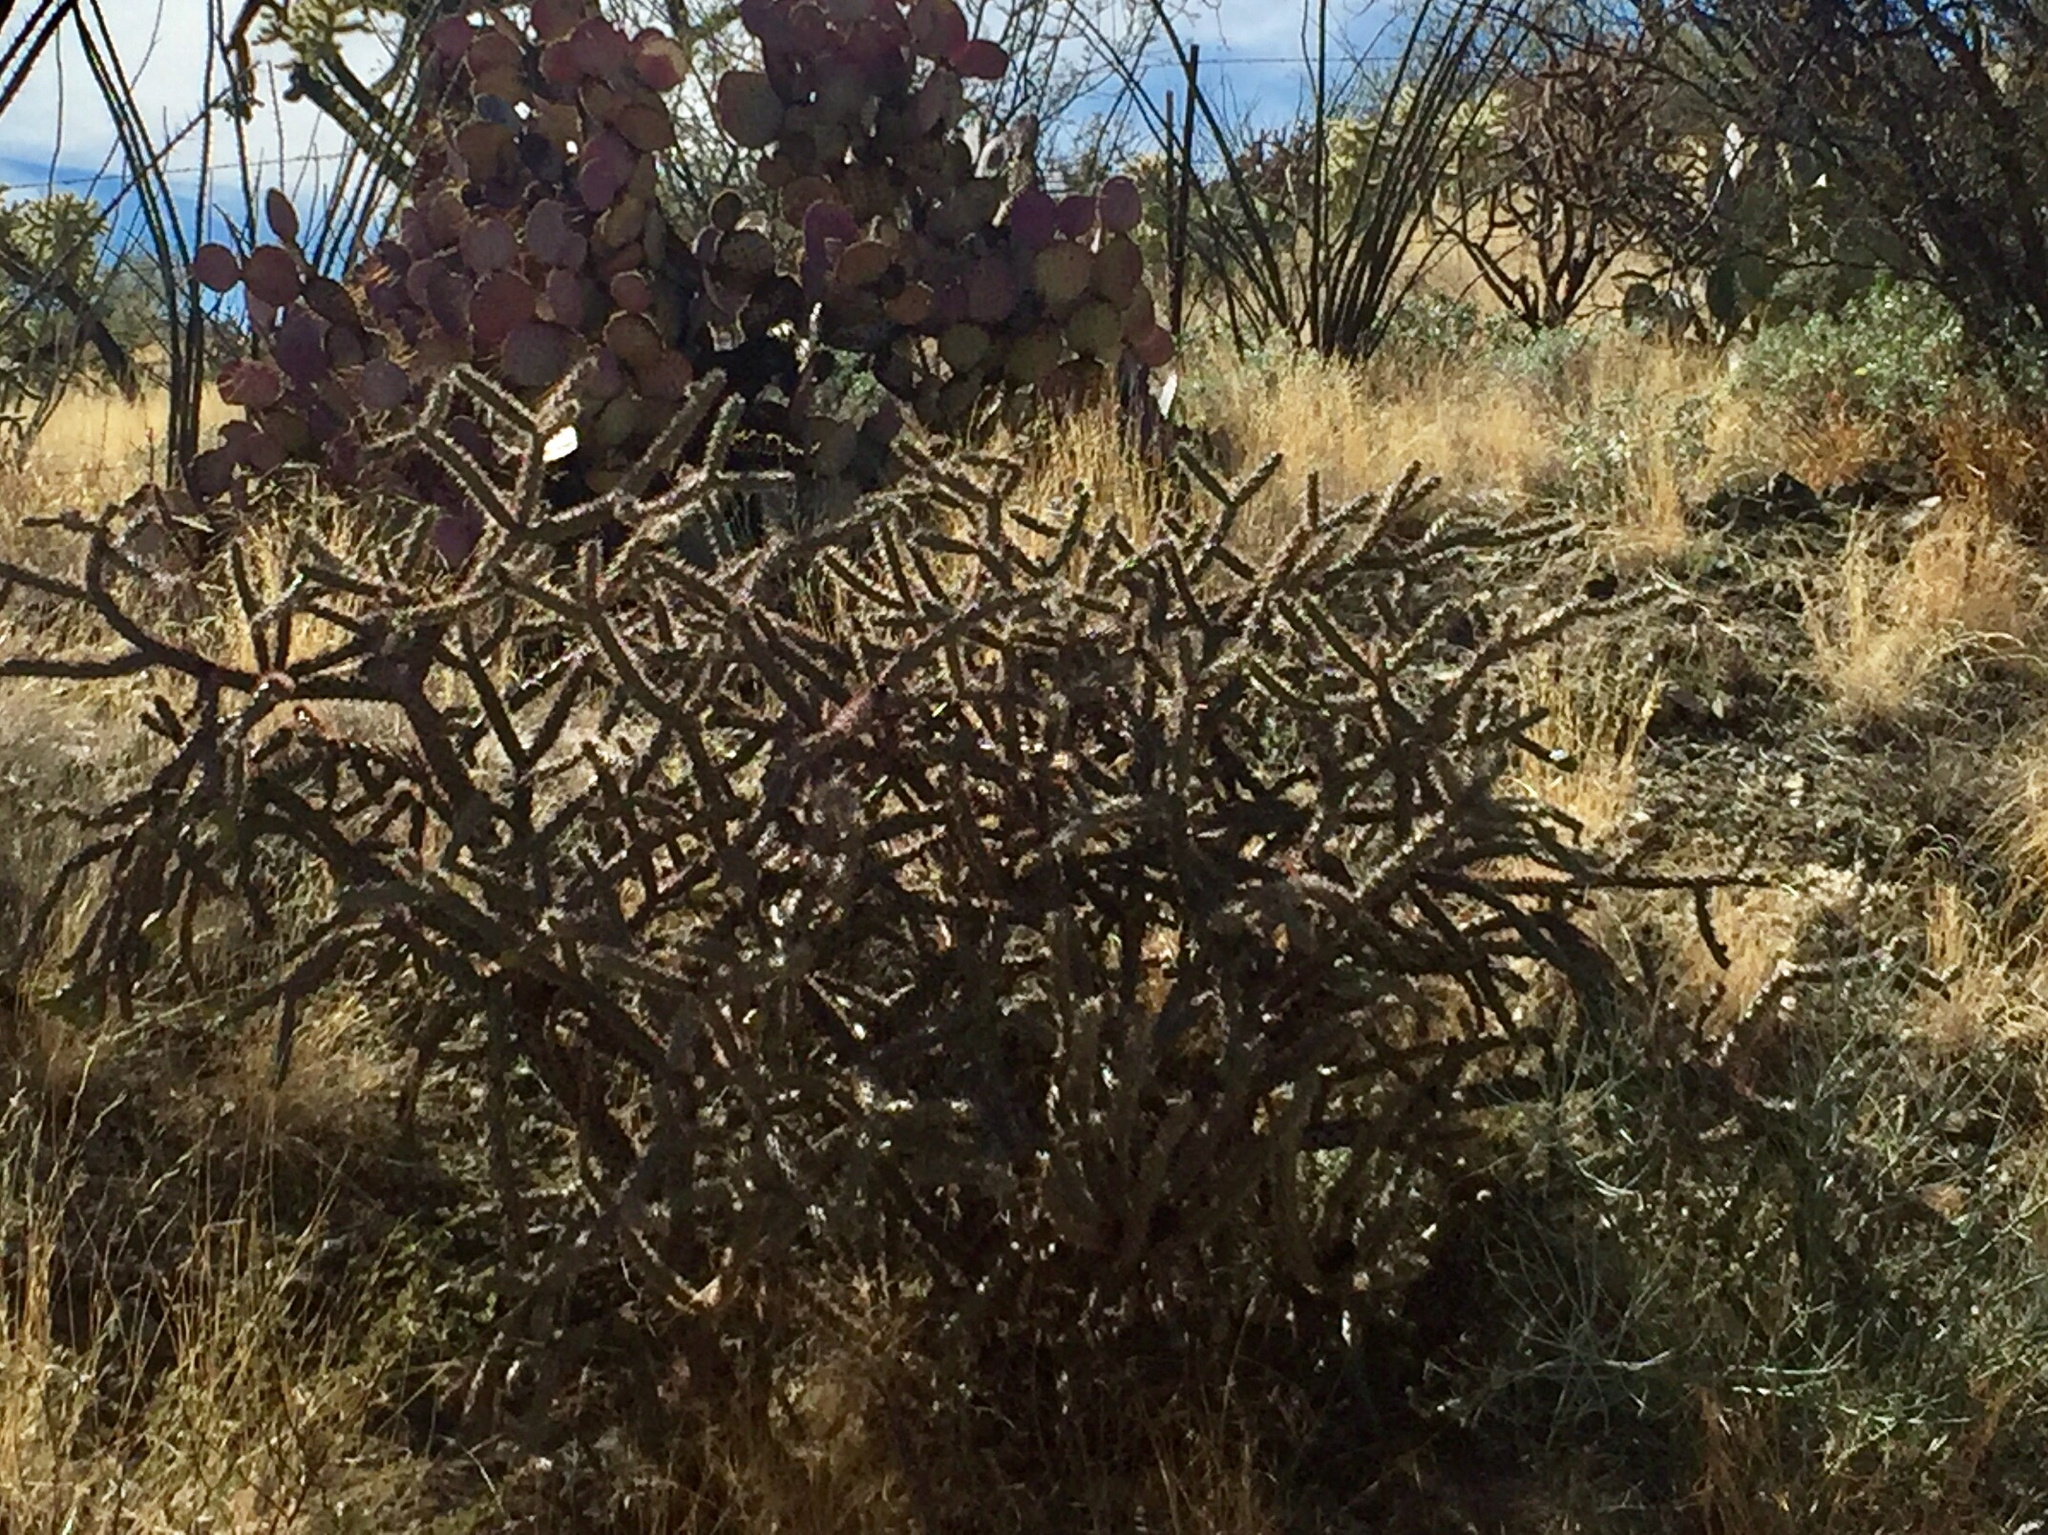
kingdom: Plantae
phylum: Tracheophyta
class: Magnoliopsida
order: Caryophyllales
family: Cactaceae
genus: Cylindropuntia
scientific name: Cylindropuntia acanthocarpa
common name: Buckhorn cholla
